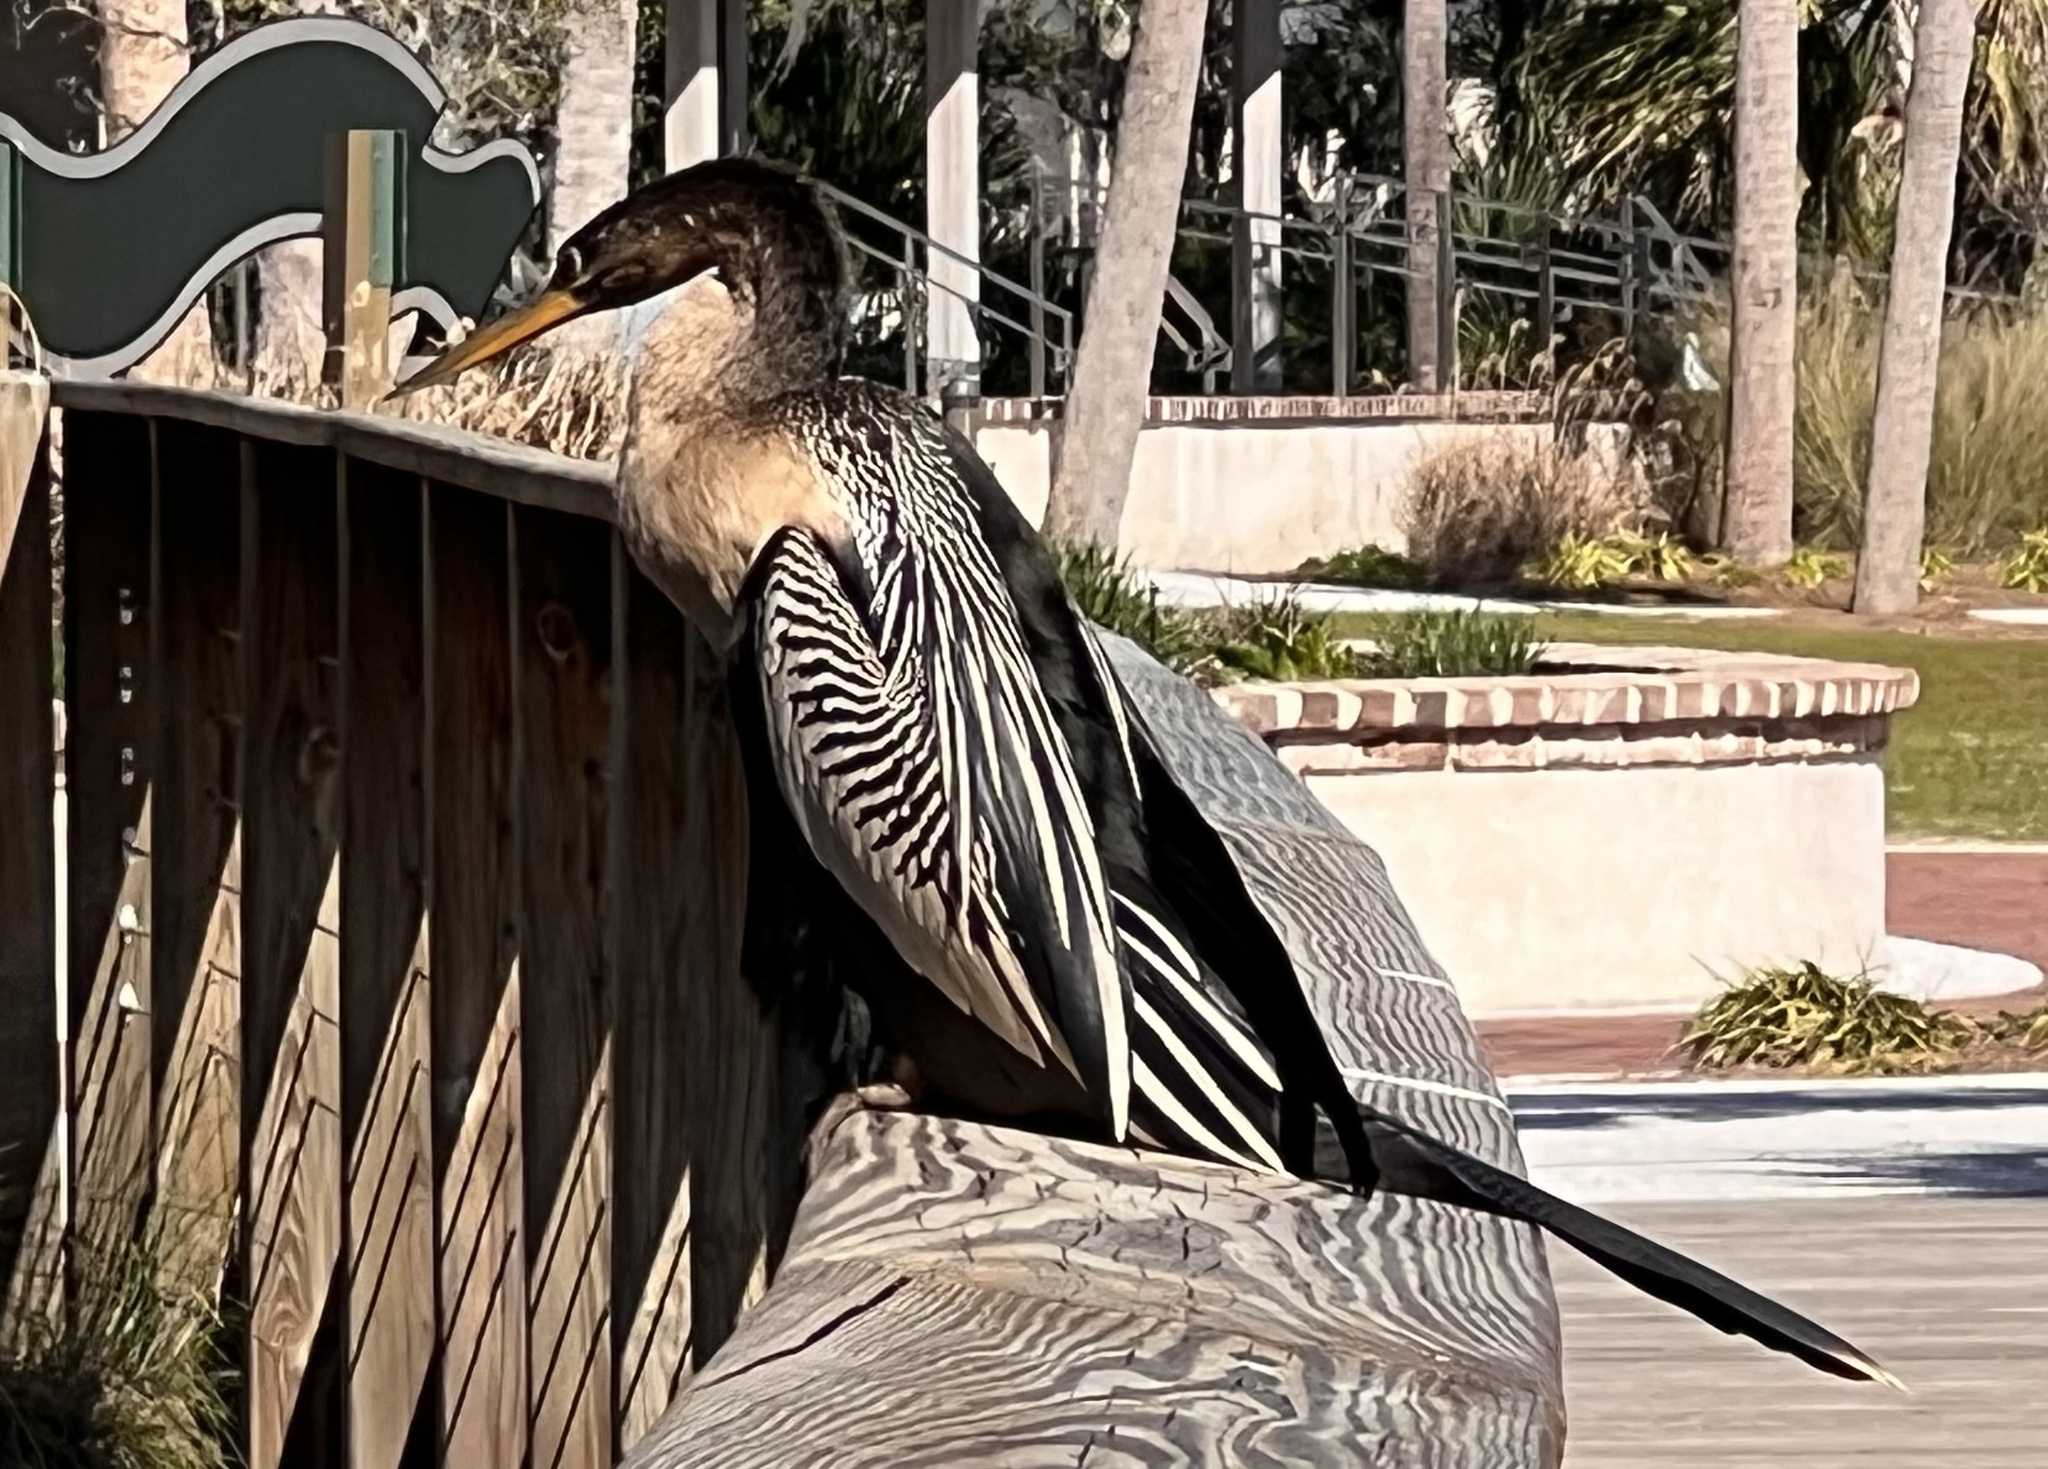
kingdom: Animalia
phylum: Chordata
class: Aves
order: Suliformes
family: Anhingidae
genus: Anhinga
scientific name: Anhinga anhinga
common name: Anhinga
